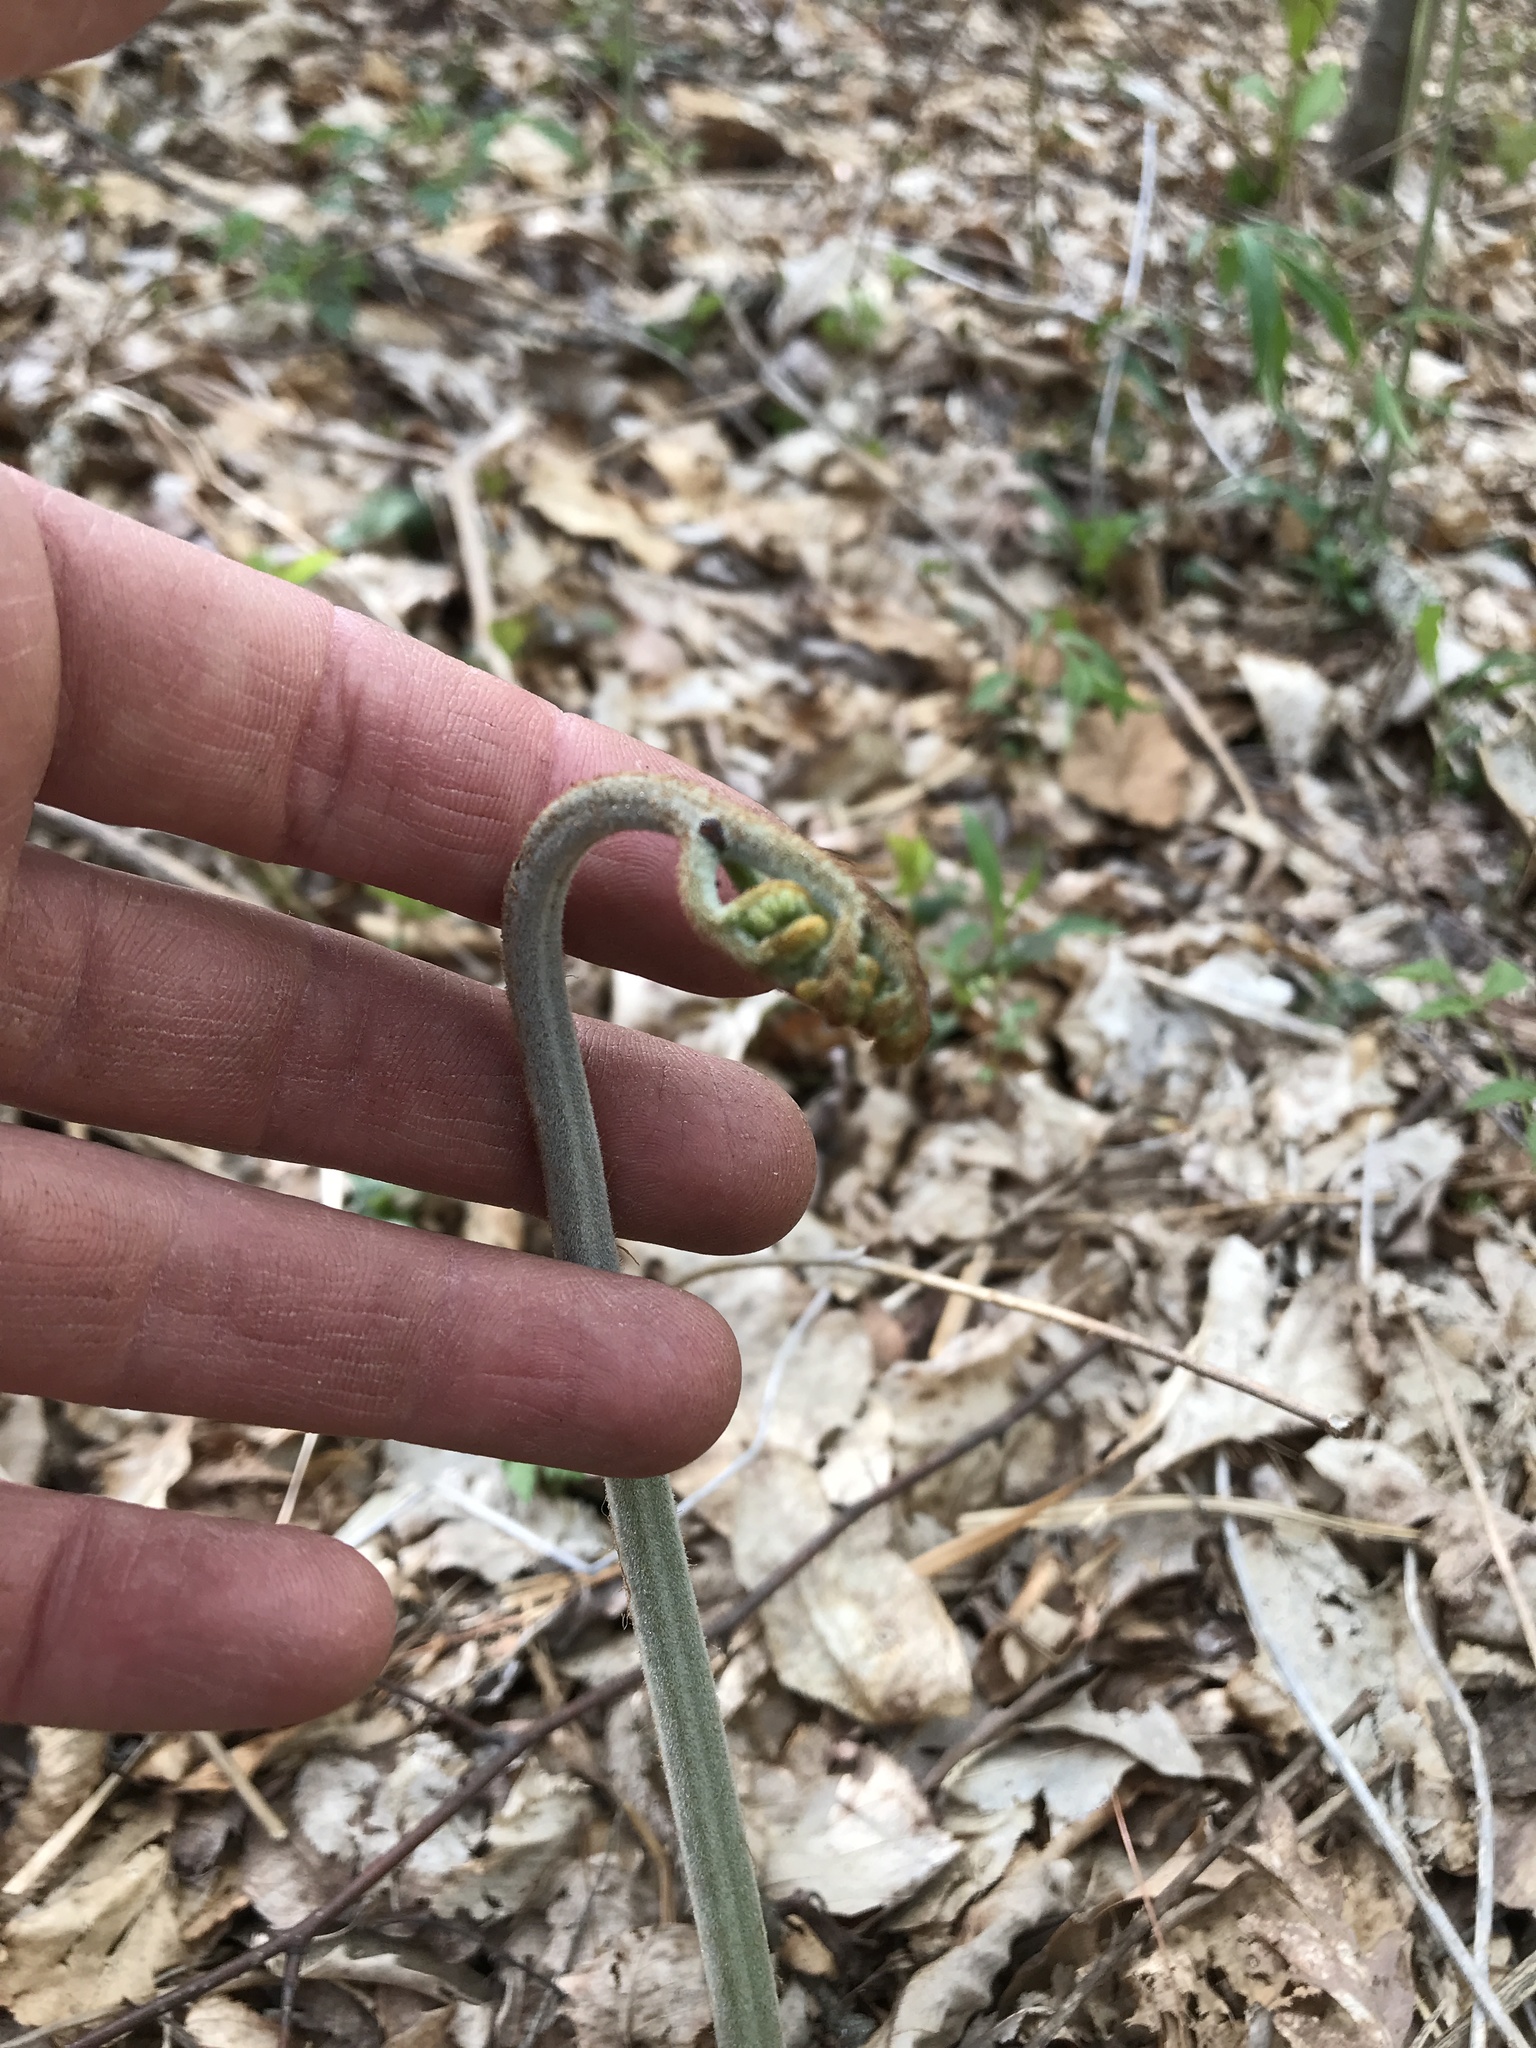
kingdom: Plantae
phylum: Tracheophyta
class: Polypodiopsida
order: Polypodiales
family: Dennstaedtiaceae
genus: Pteridium
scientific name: Pteridium aquilinum
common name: Bracken
